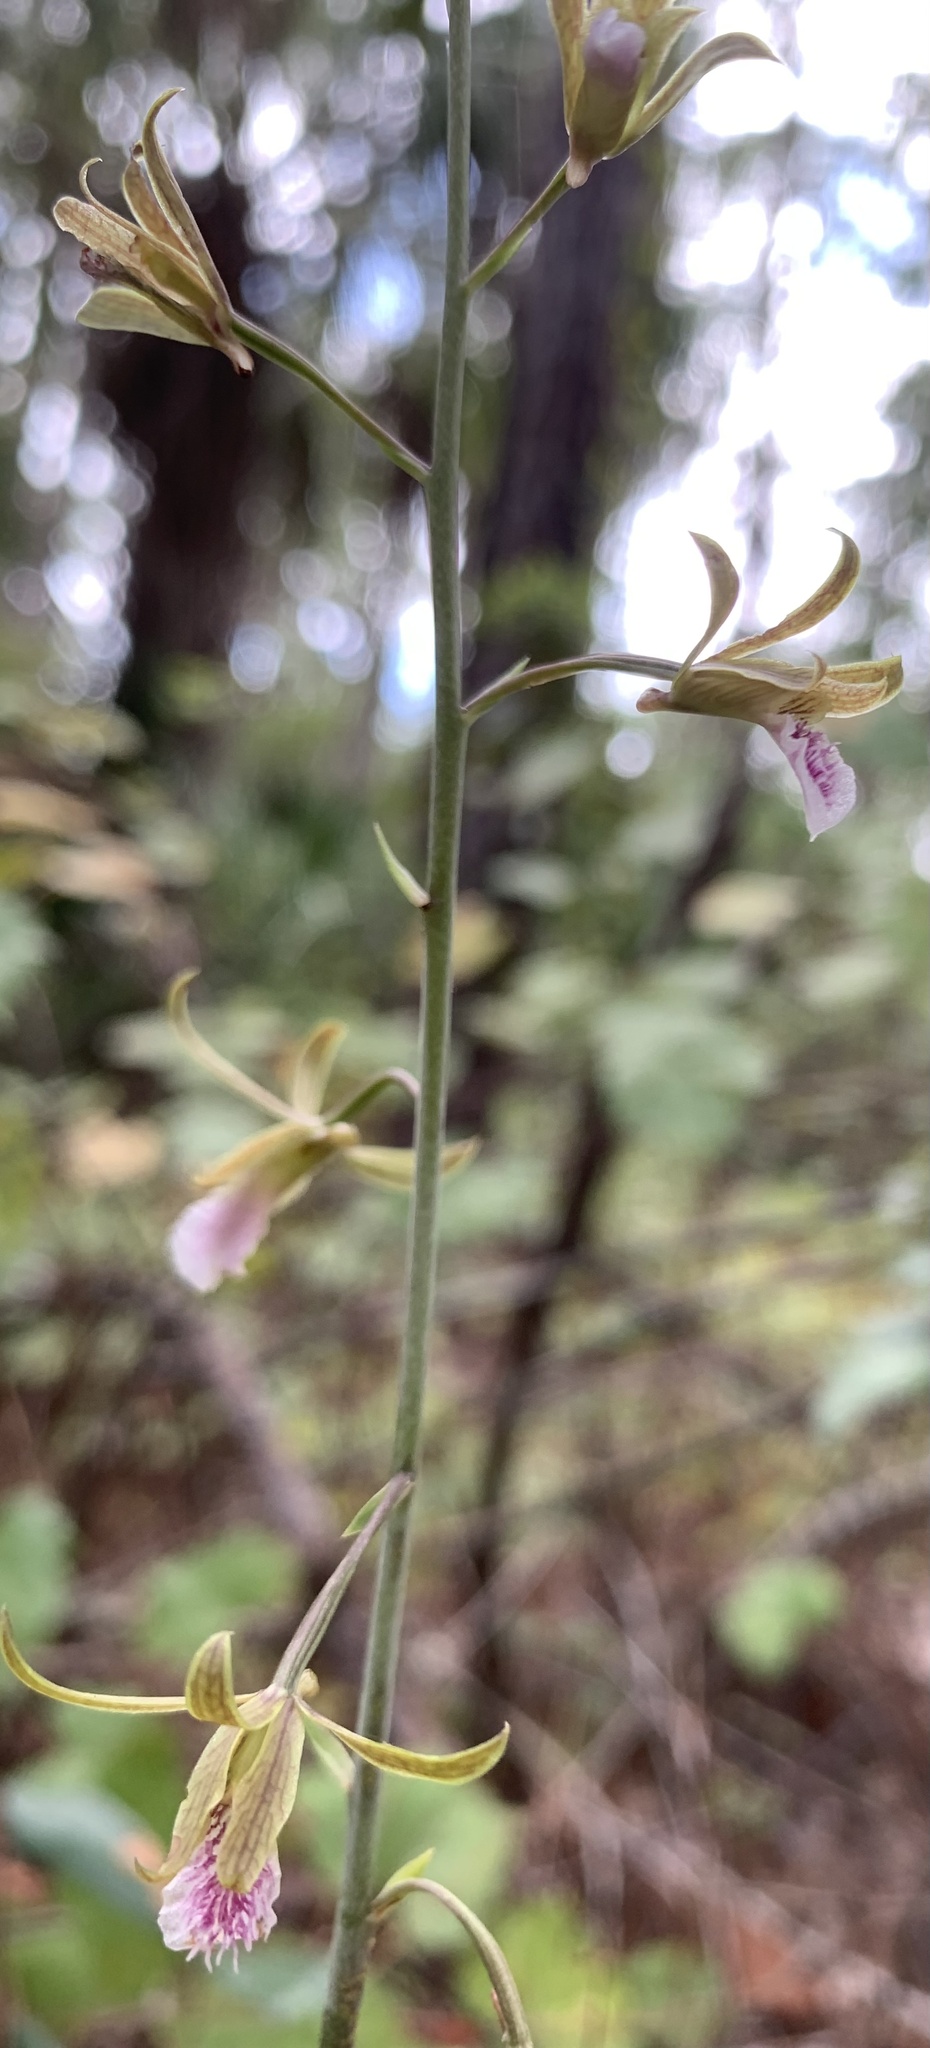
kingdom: Plantae
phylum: Tracheophyta
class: Liliopsida
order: Asparagales
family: Orchidaceae
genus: Eulophia
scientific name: Eulophia graminea
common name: Orchid
